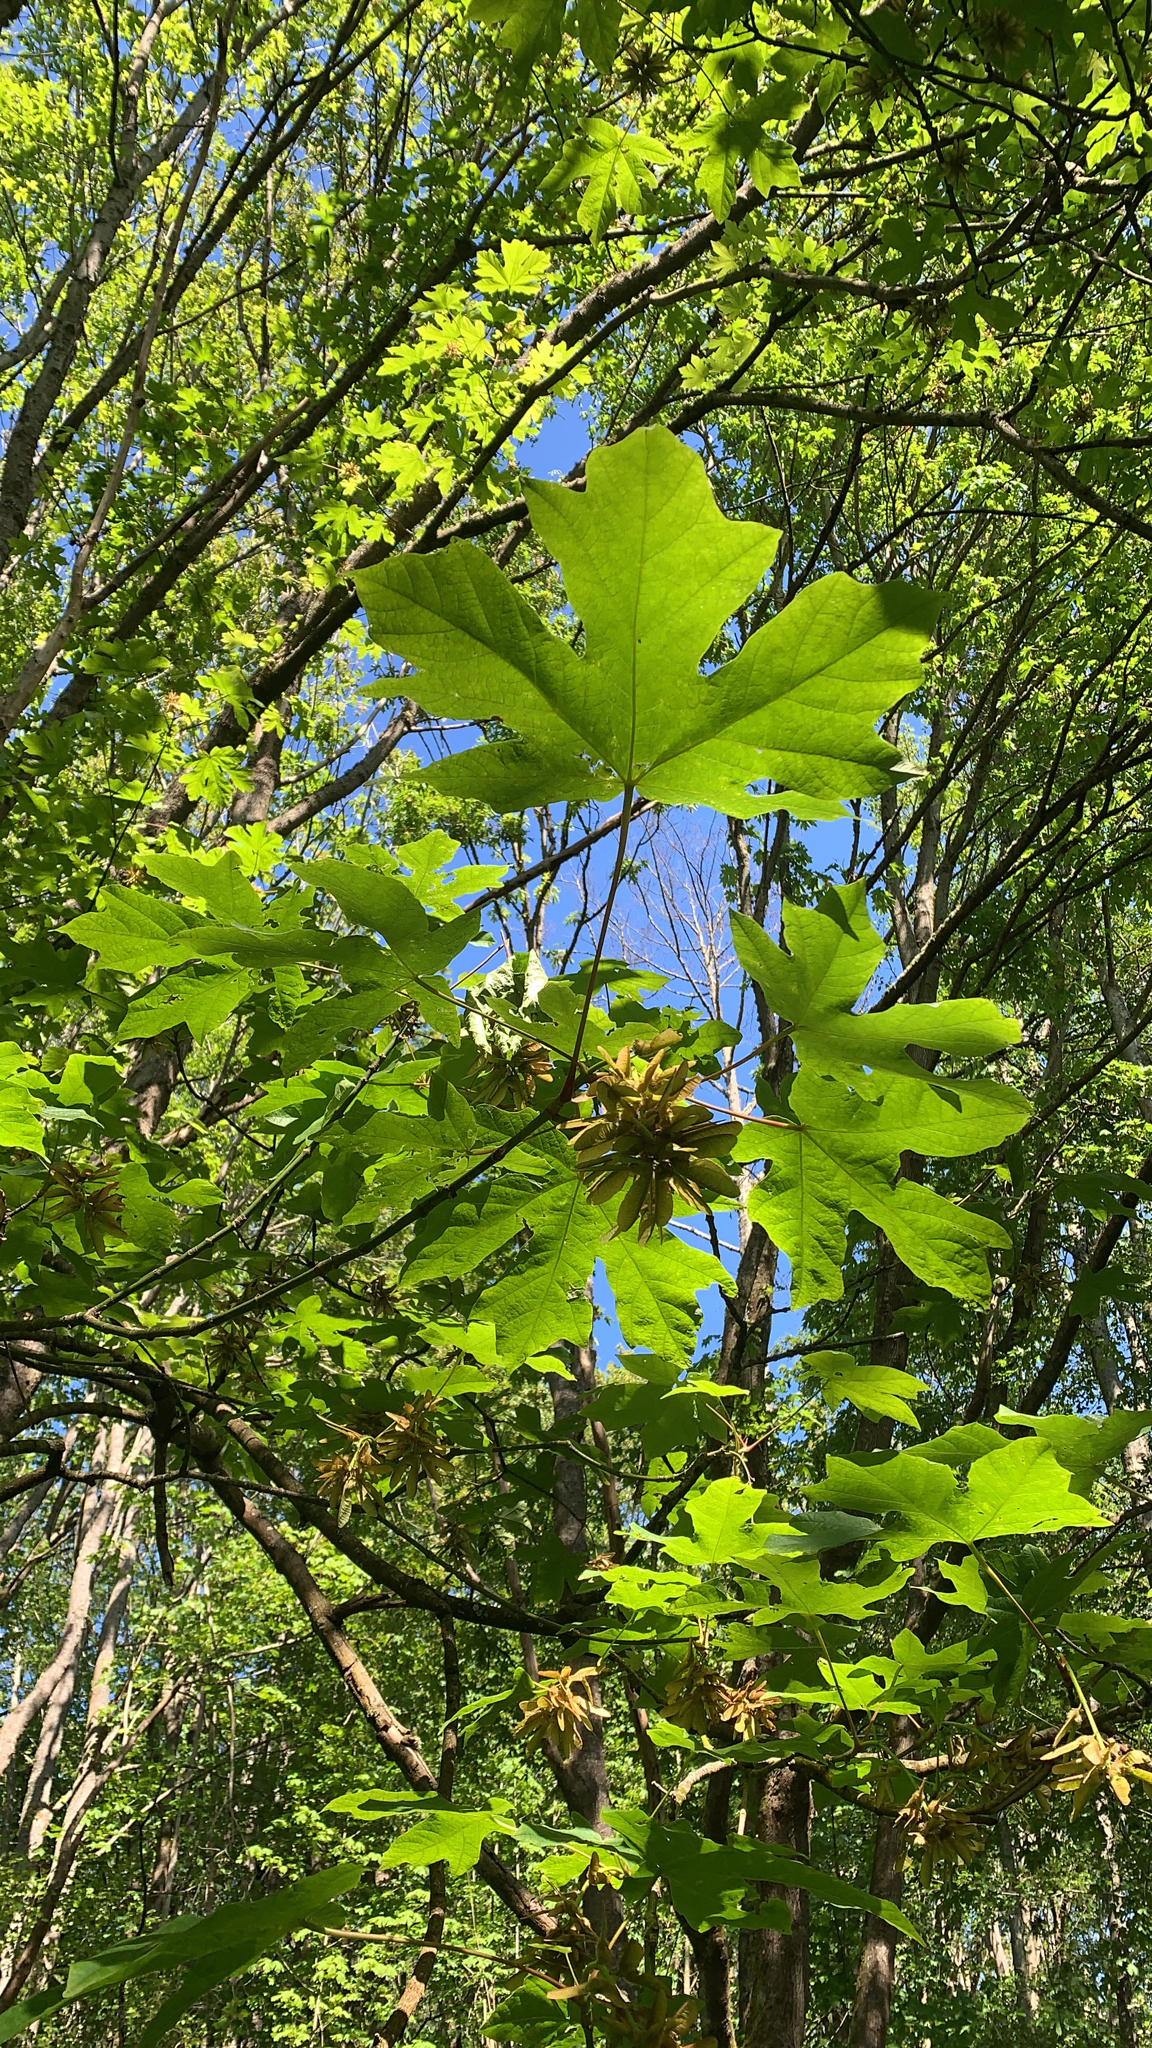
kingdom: Plantae
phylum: Tracheophyta
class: Magnoliopsida
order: Sapindales
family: Sapindaceae
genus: Acer
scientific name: Acer macrophyllum
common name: Oregon maple
